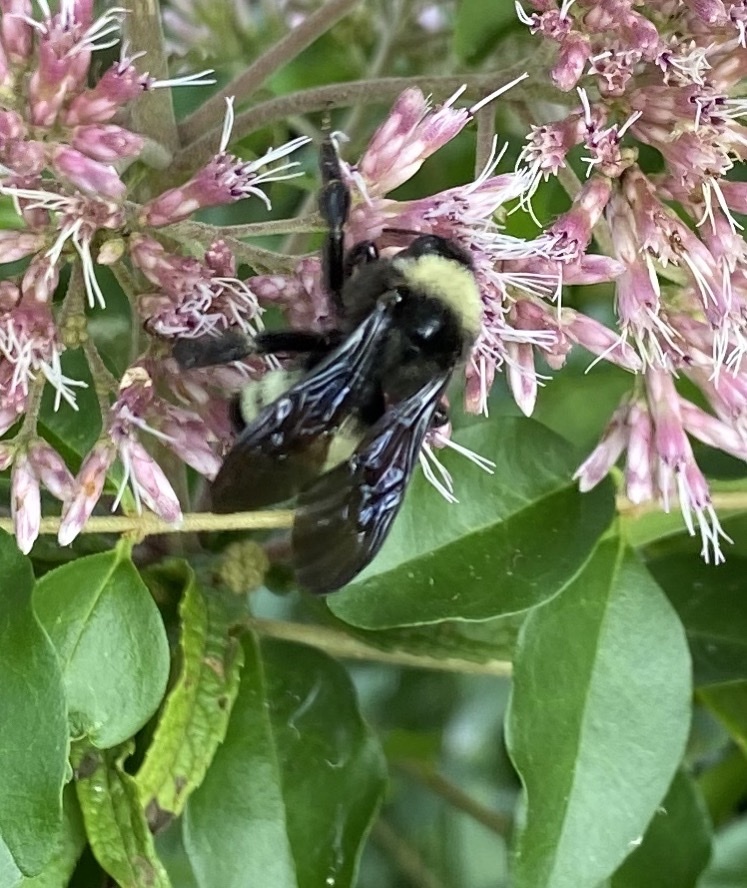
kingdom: Animalia
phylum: Arthropoda
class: Insecta
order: Hymenoptera
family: Apidae
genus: Bombus
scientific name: Bombus pensylvanicus
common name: Bumble bee
